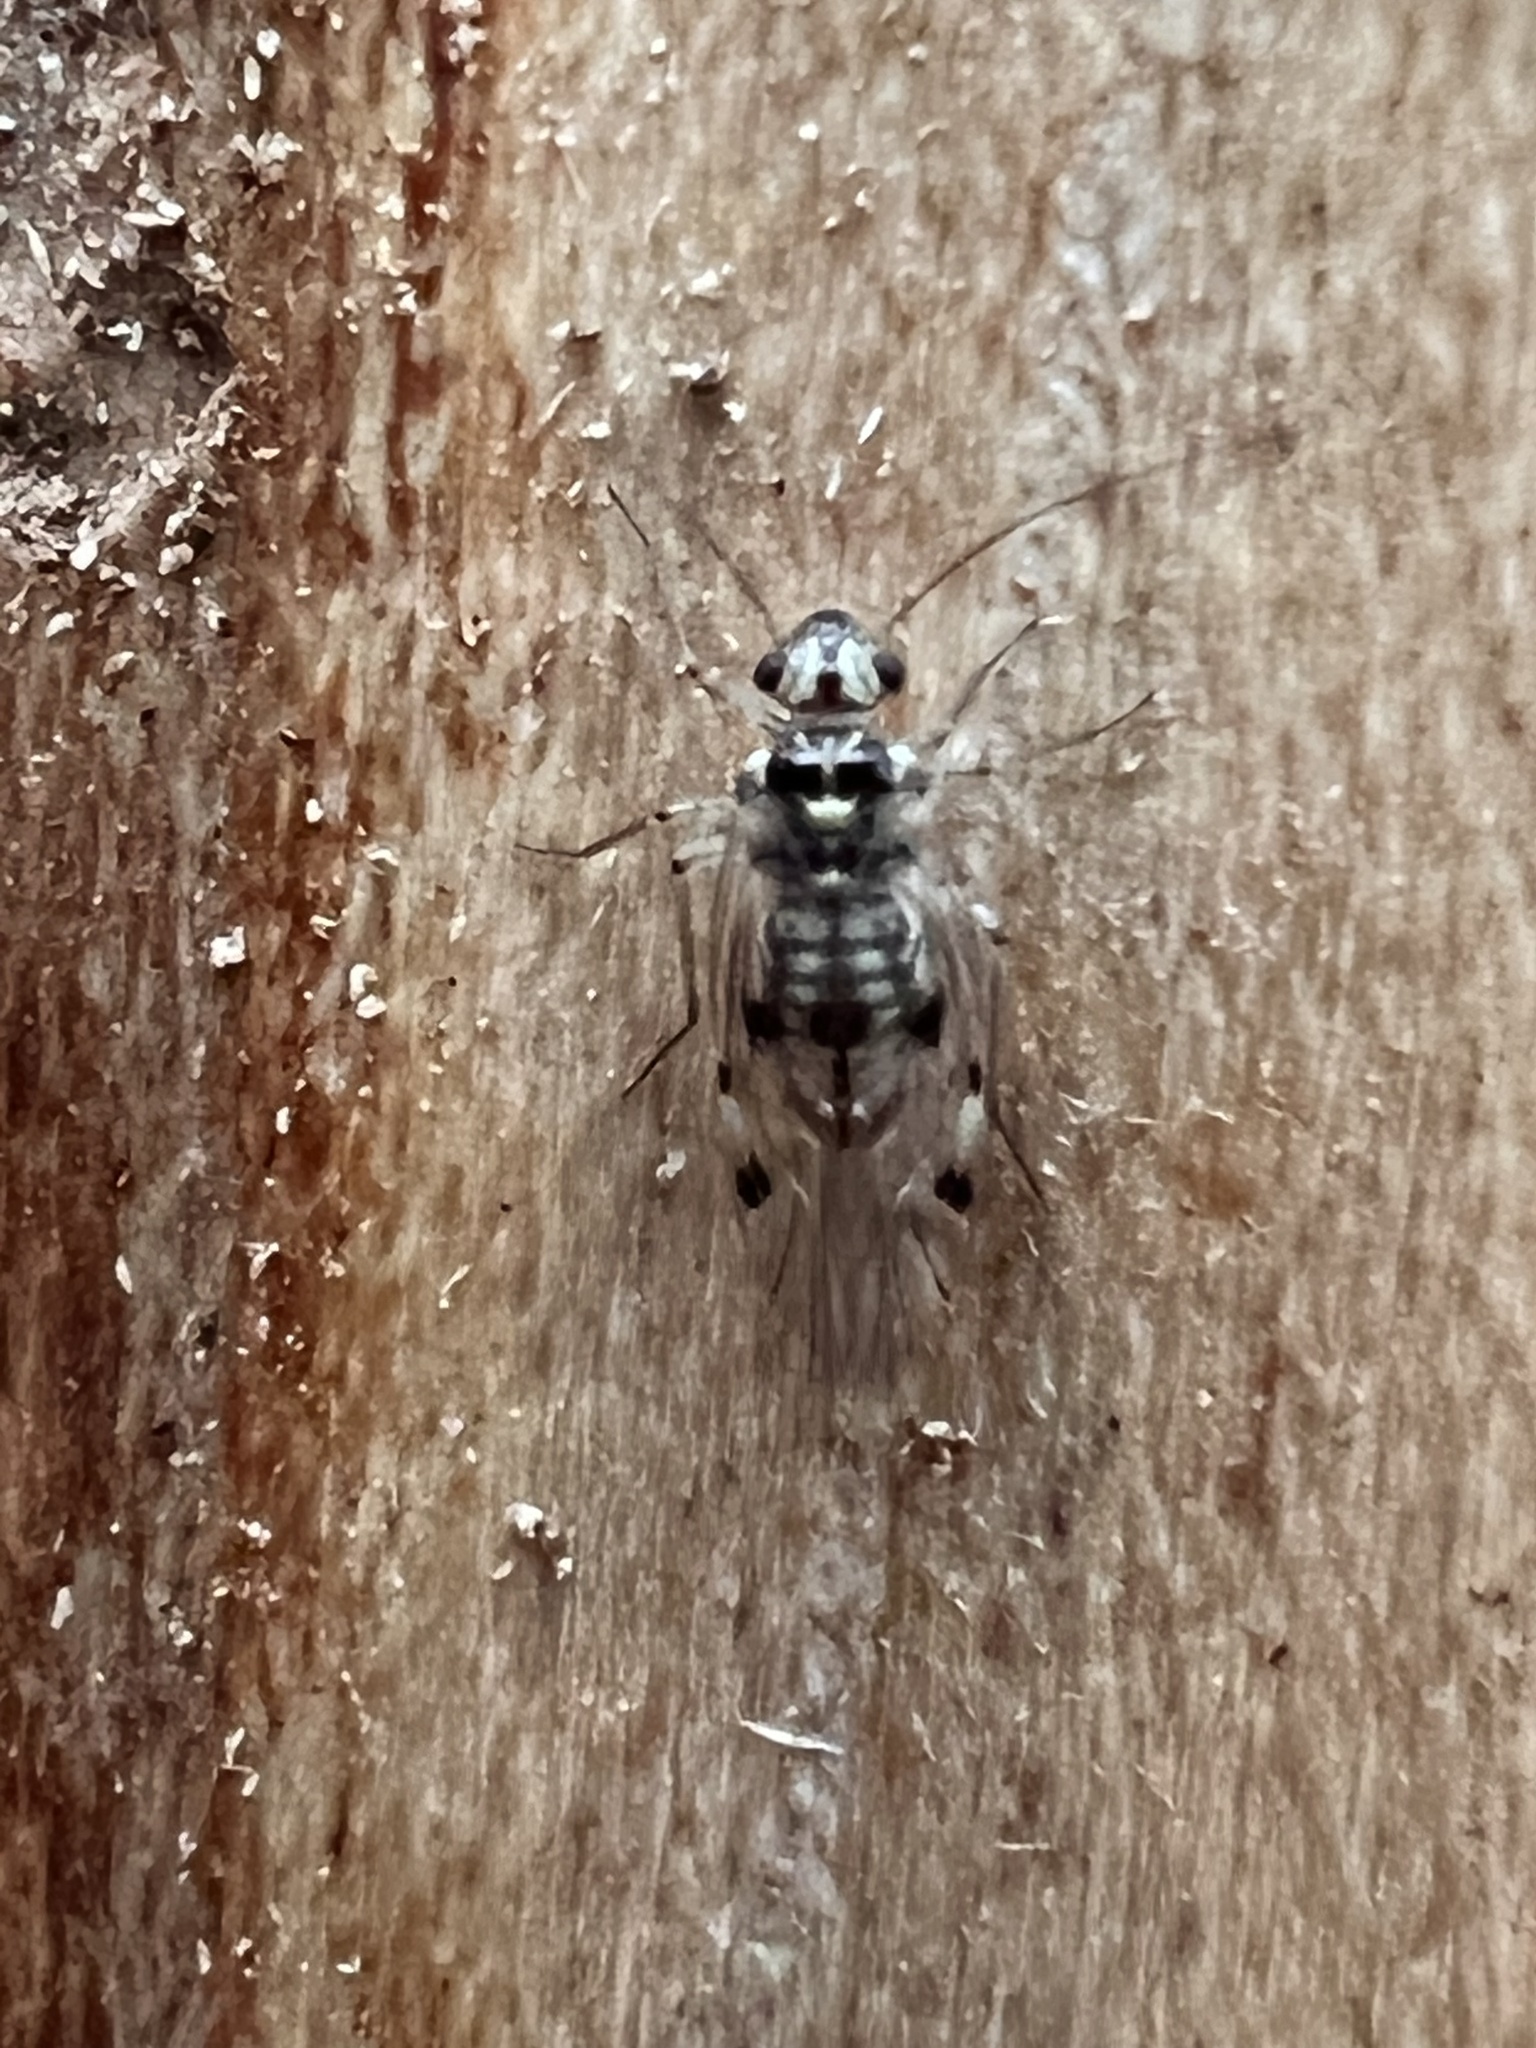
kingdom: Animalia
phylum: Arthropoda
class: Insecta
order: Psocodea
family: Psocidae
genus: Psocus
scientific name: Psocus leidyi
